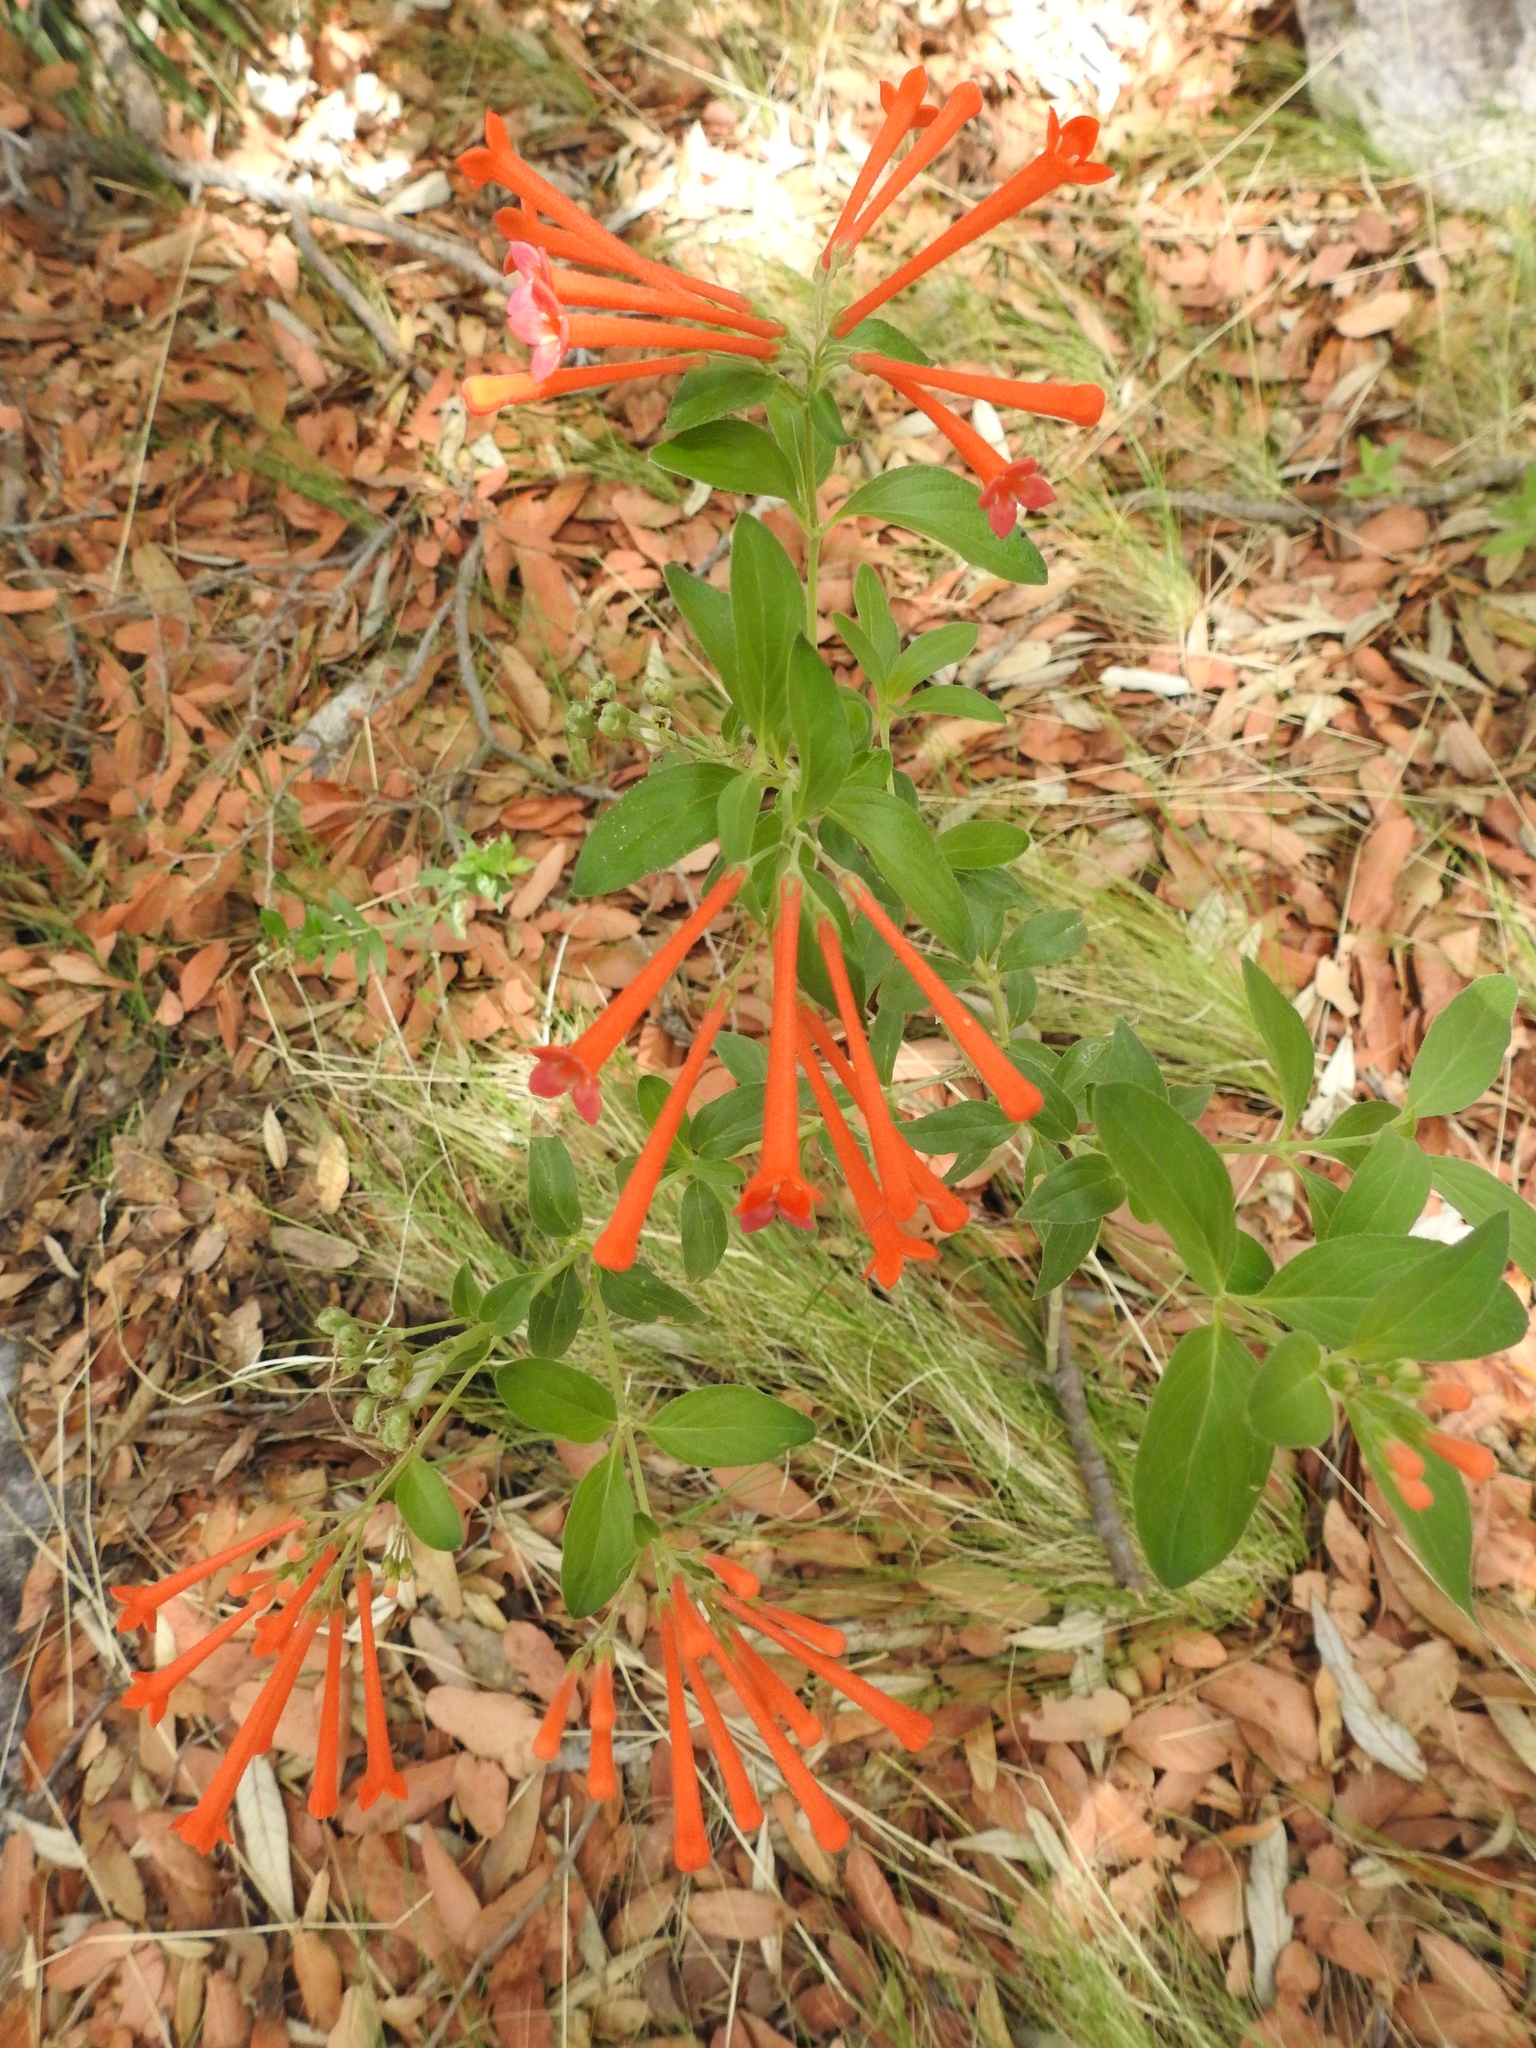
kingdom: Plantae
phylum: Tracheophyta
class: Magnoliopsida
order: Gentianales
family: Rubiaceae
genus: Bouvardia
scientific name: Bouvardia ternifolia
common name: Scarlet bouvardia
